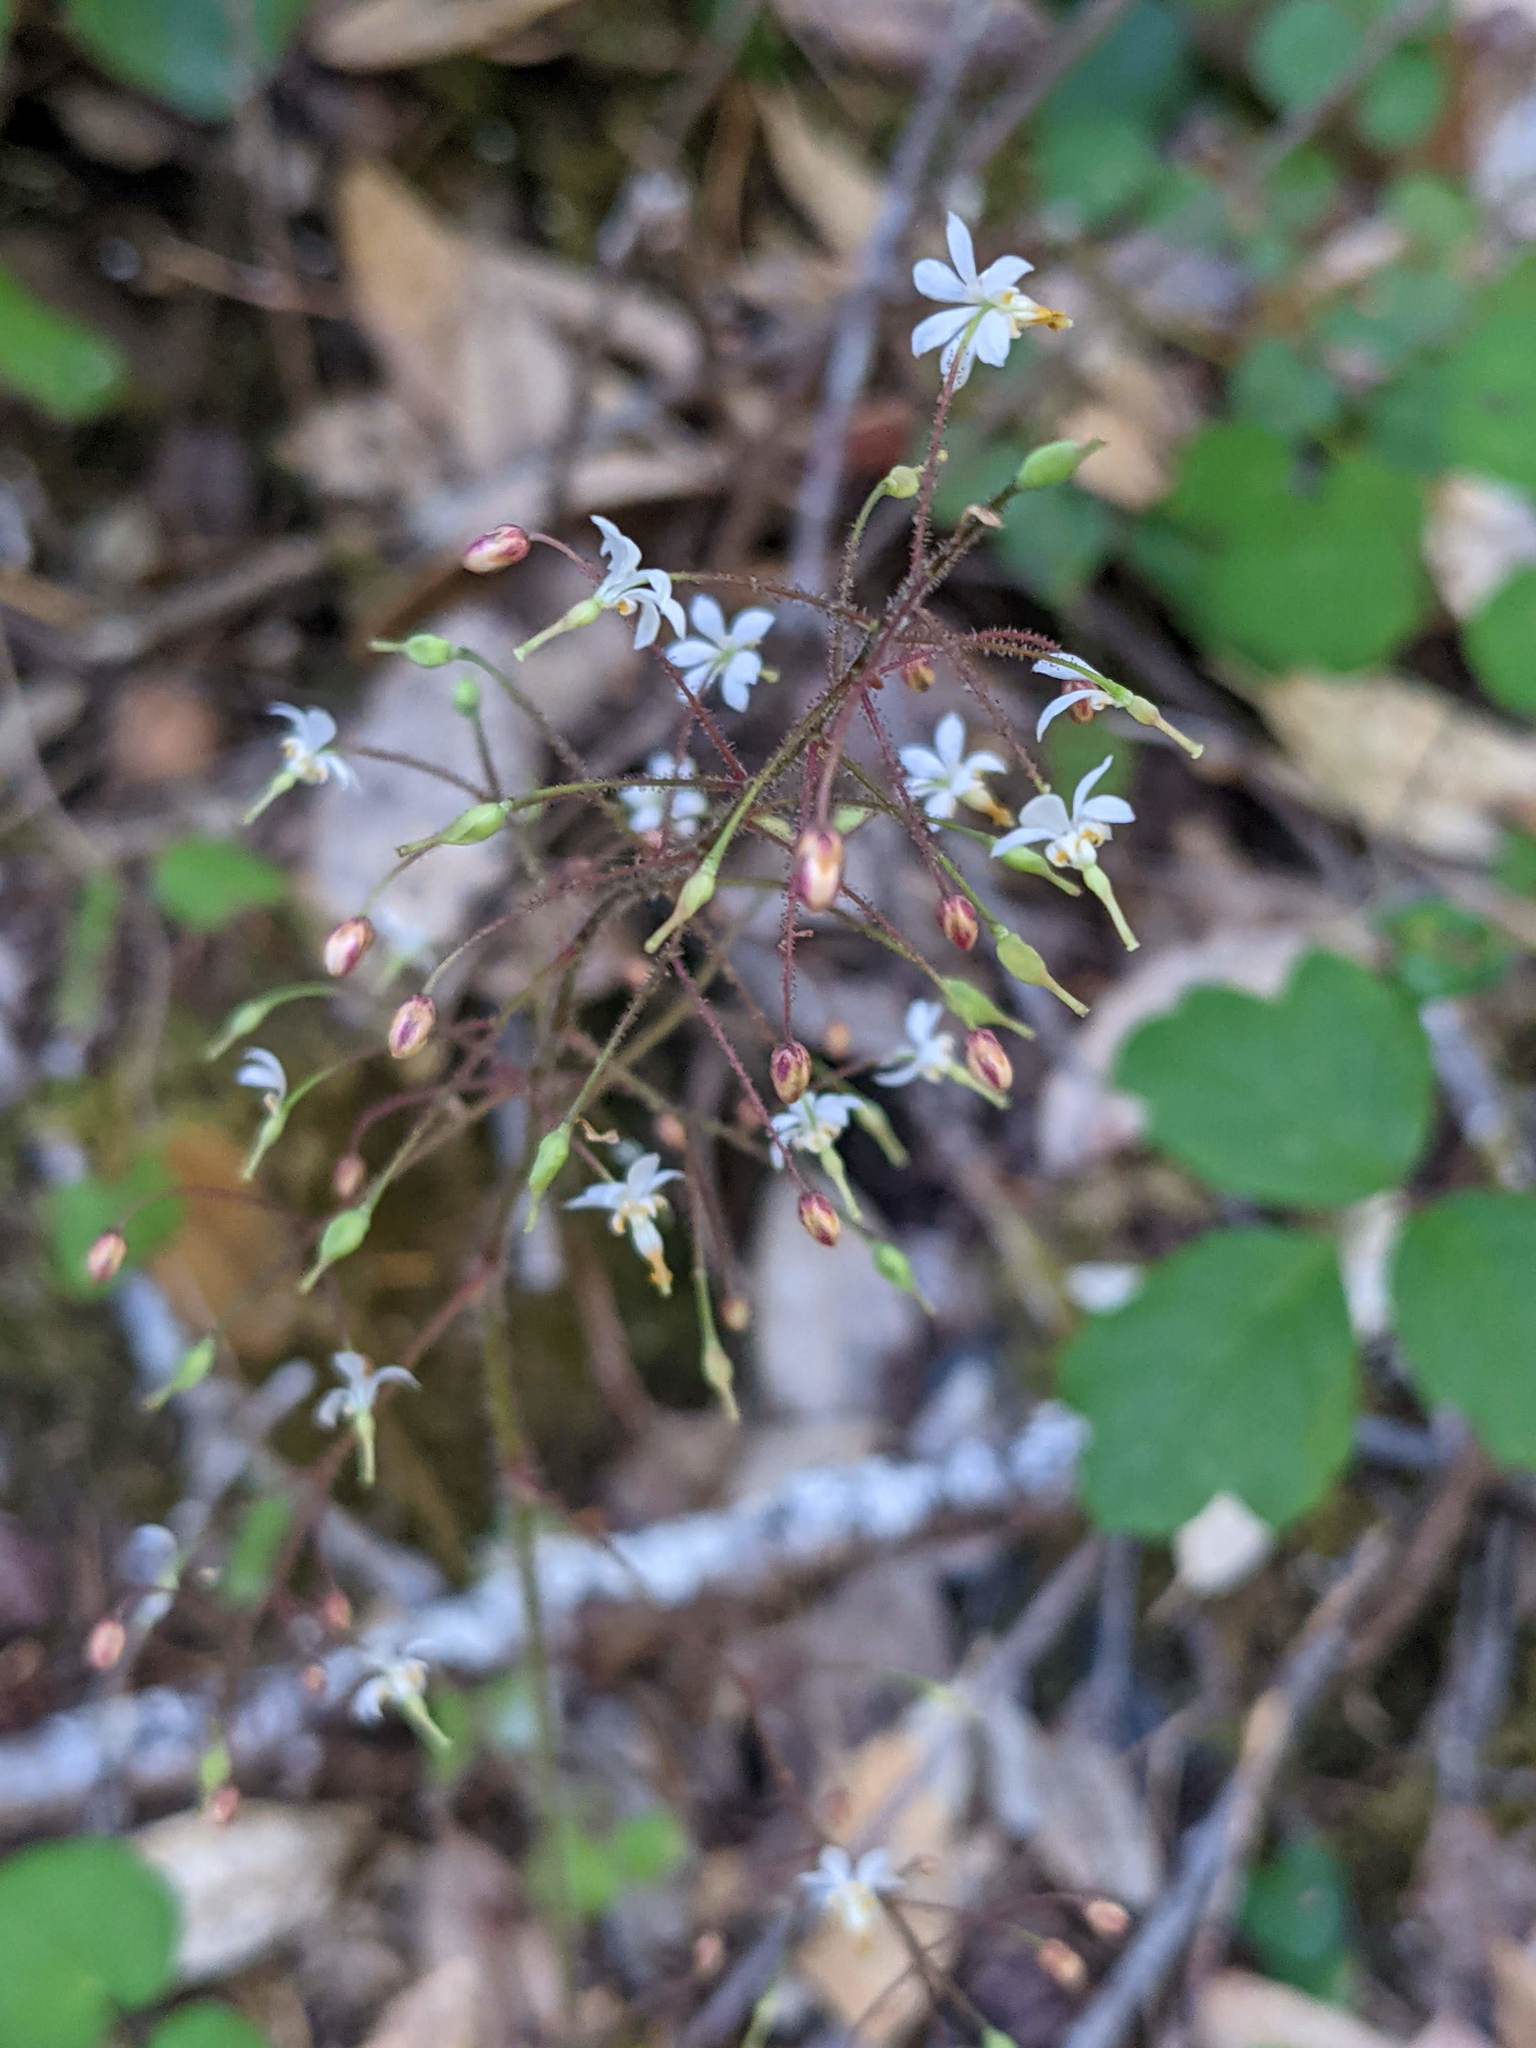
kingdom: Plantae
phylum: Tracheophyta
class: Magnoliopsida
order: Ranunculales
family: Berberidaceae
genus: Vancouveria
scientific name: Vancouveria planipetala
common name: Redwood-ivy
